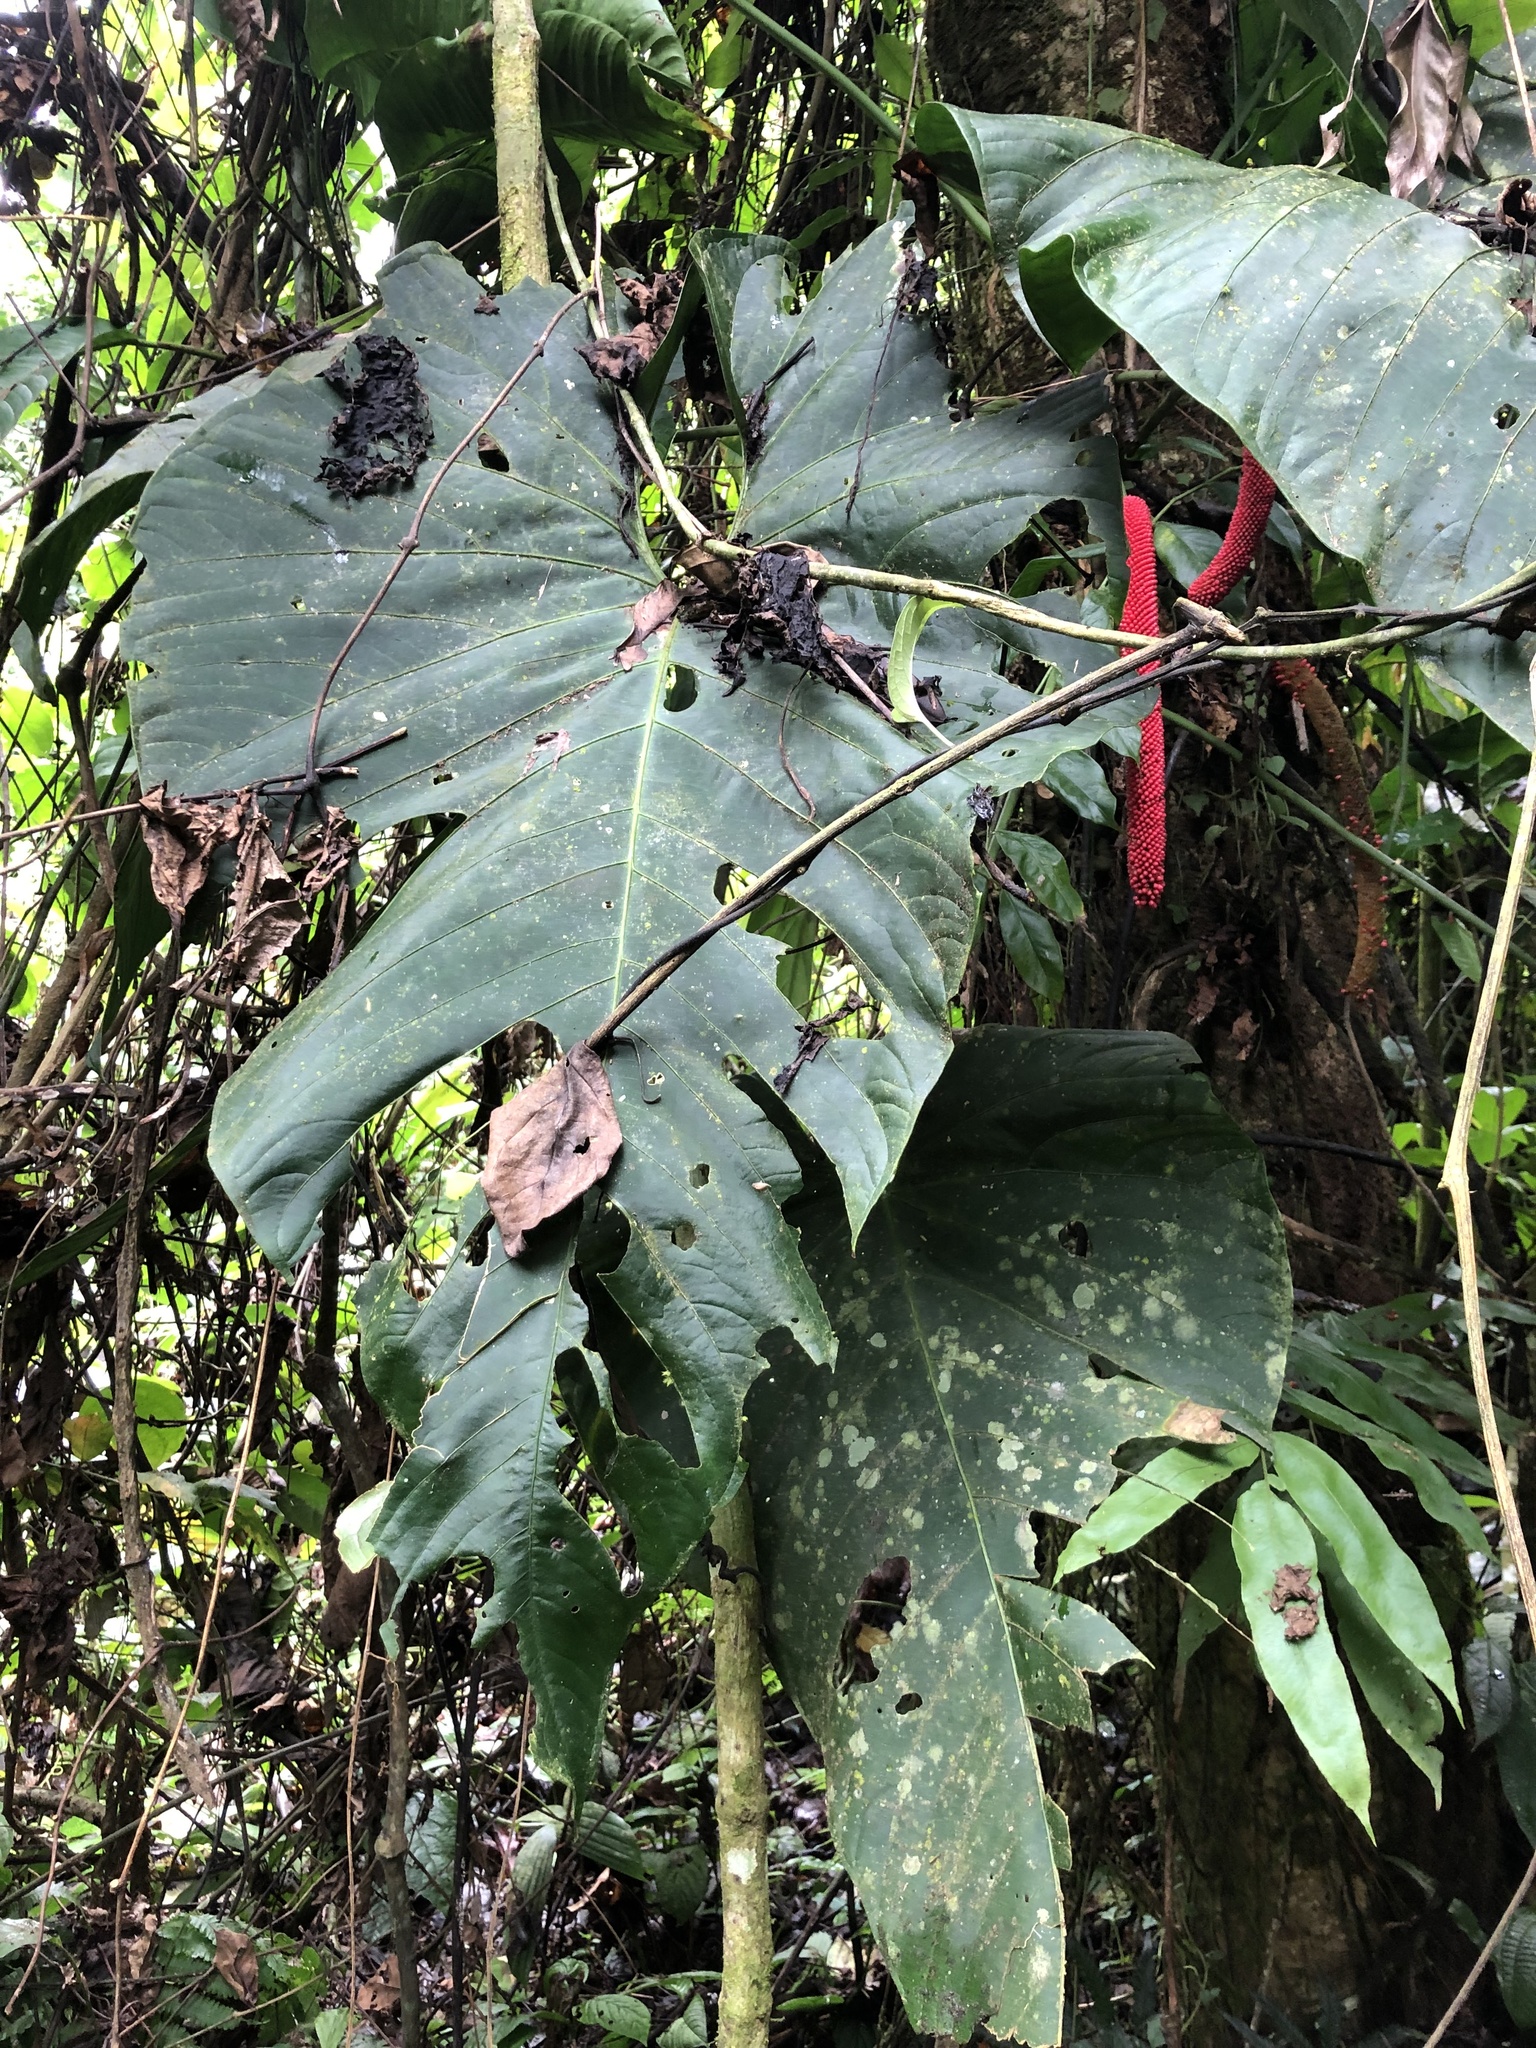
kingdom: Plantae
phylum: Tracheophyta
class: Liliopsida
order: Alismatales
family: Araceae
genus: Anthurium
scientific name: Anthurium giganteum
